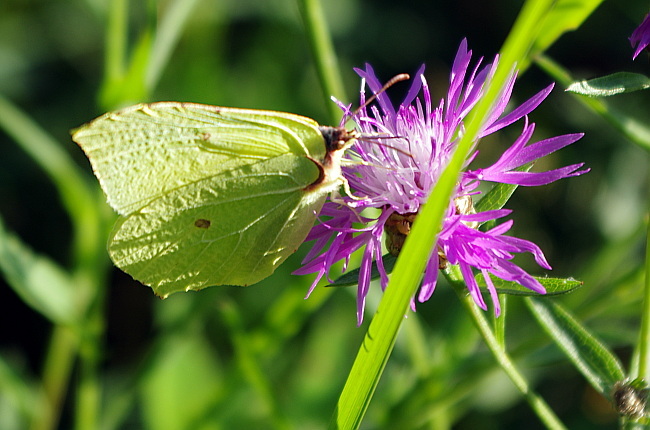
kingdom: Animalia
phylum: Arthropoda
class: Insecta
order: Lepidoptera
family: Pieridae
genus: Gonepteryx
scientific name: Gonepteryx rhamni
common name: Brimstone
